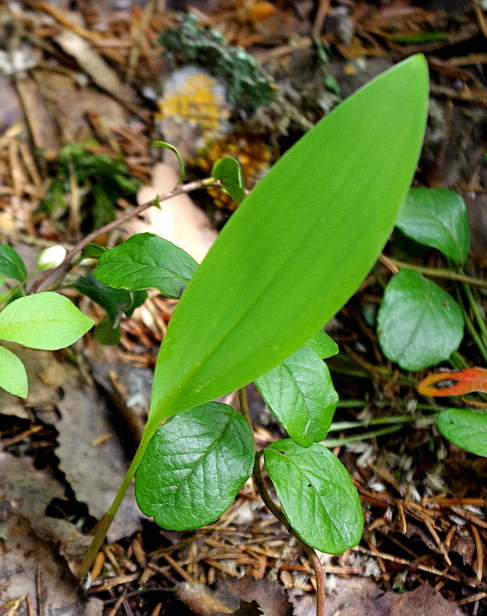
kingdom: Plantae
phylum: Tracheophyta
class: Liliopsida
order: Asparagales
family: Asparagaceae
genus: Convallaria
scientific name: Convallaria majalis
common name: Lily-of-the-valley
